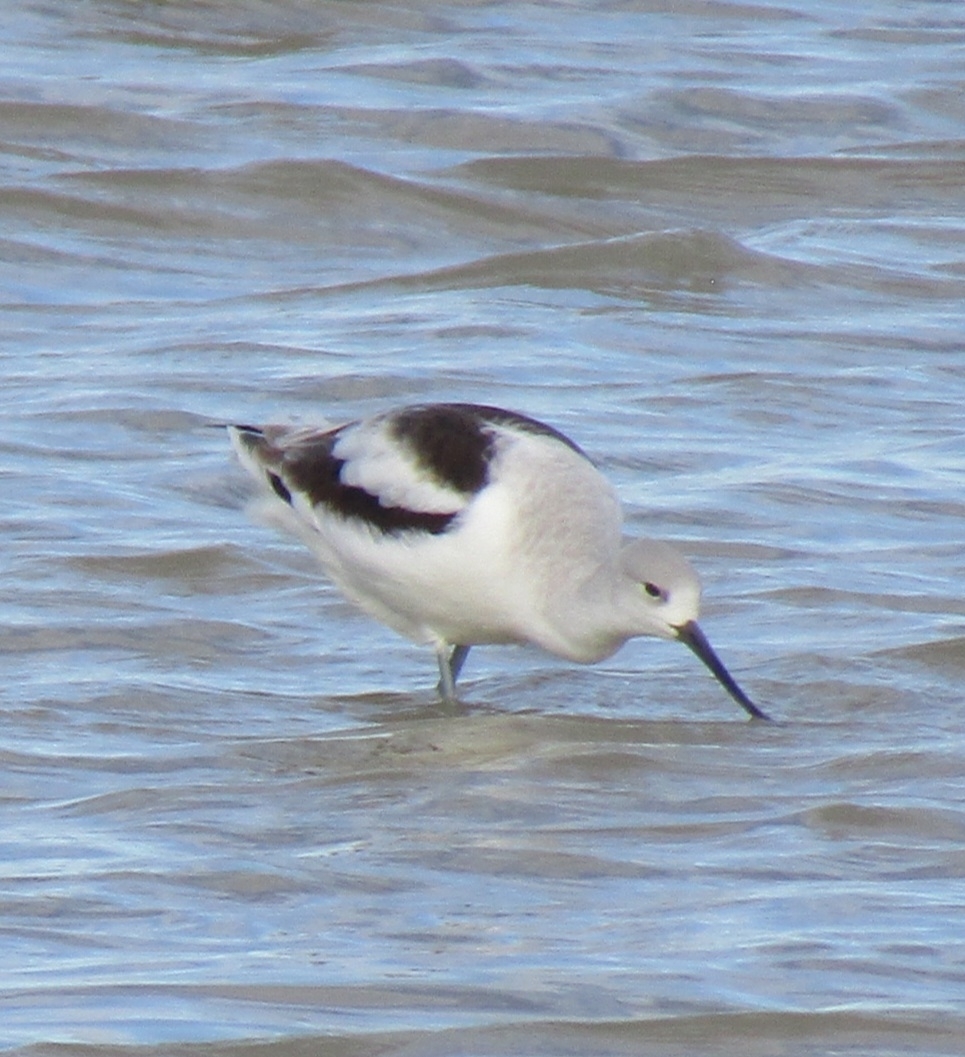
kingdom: Animalia
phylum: Chordata
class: Aves
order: Charadriiformes
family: Recurvirostridae
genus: Recurvirostra
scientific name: Recurvirostra americana
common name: American avocet
